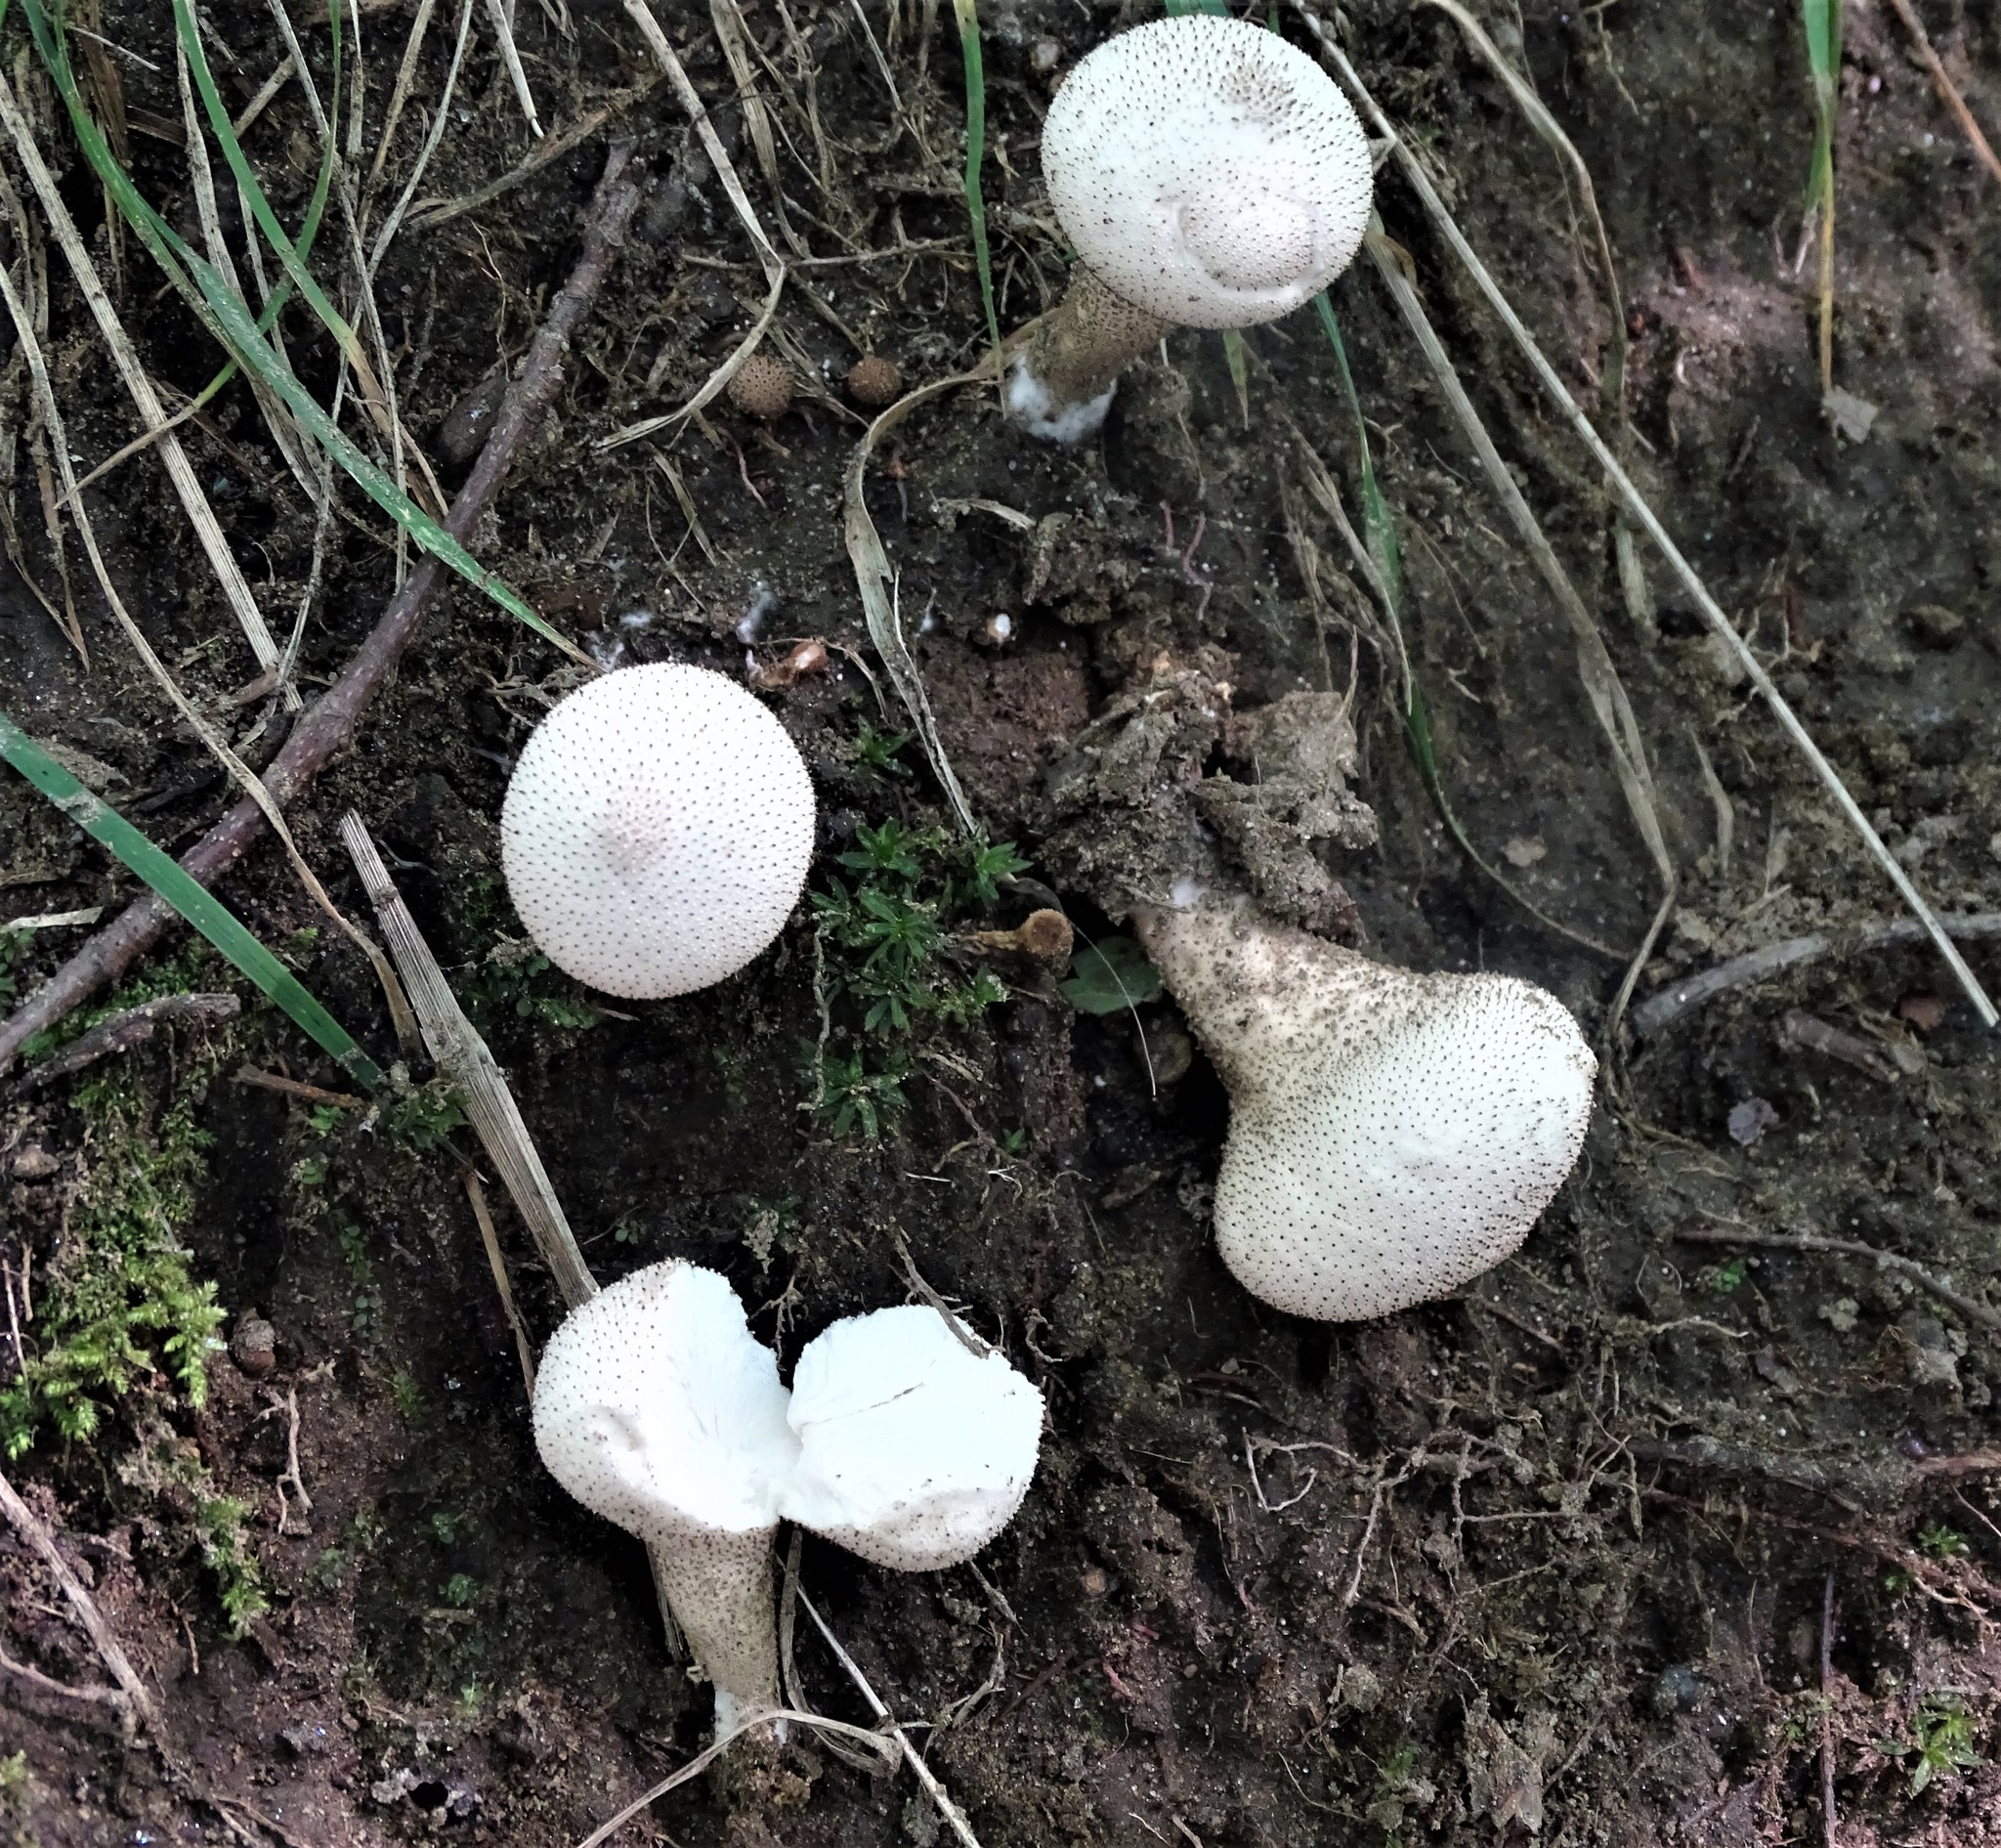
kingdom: Fungi
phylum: Basidiomycota
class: Agaricomycetes
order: Agaricales
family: Lycoperdaceae
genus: Lycoperdon
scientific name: Lycoperdon perlatum
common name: Common puffball
